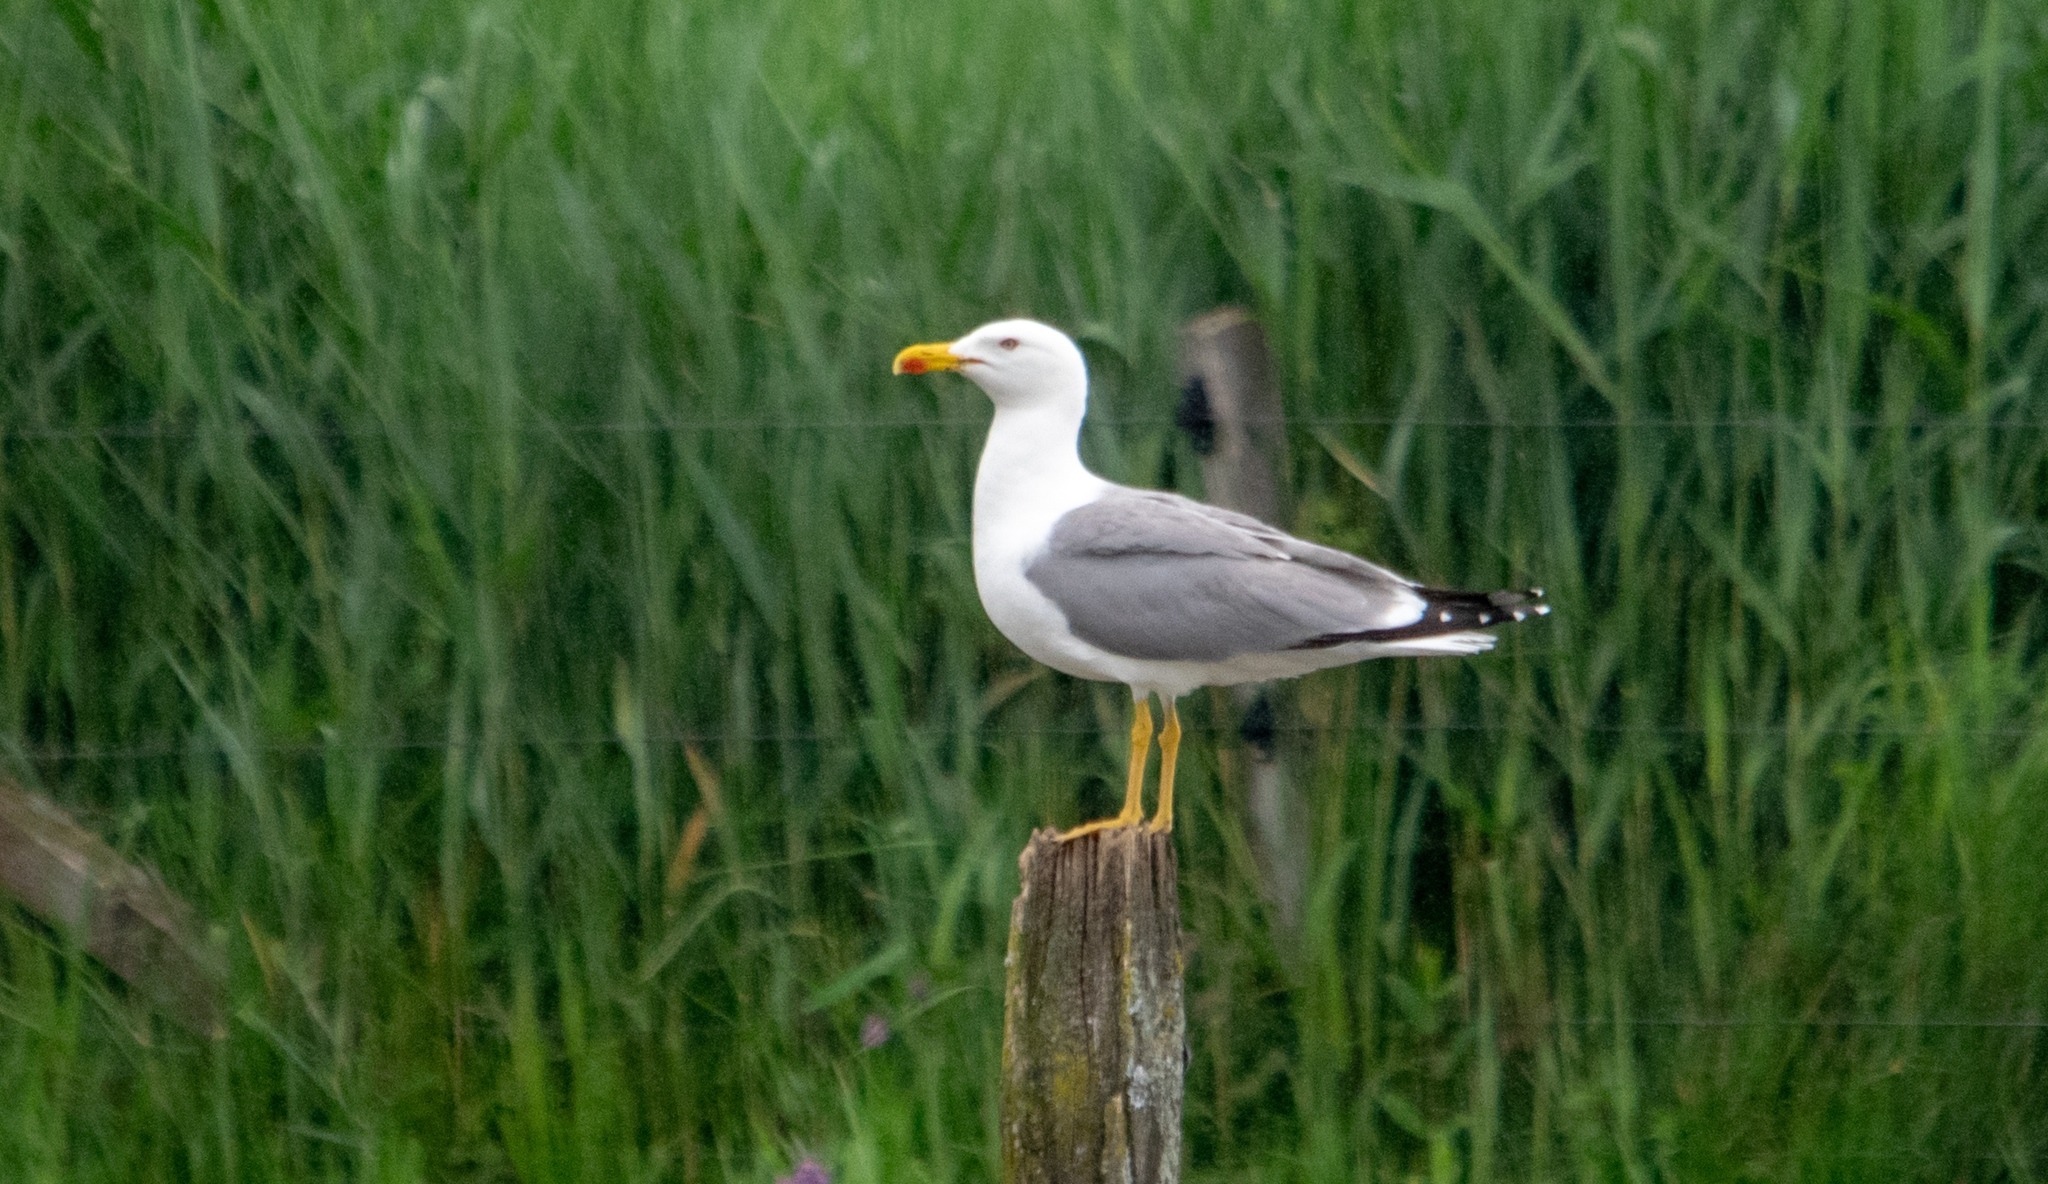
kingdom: Animalia
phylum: Chordata
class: Aves
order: Charadriiformes
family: Laridae
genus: Larus
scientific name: Larus michahellis
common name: Yellow-legged gull
